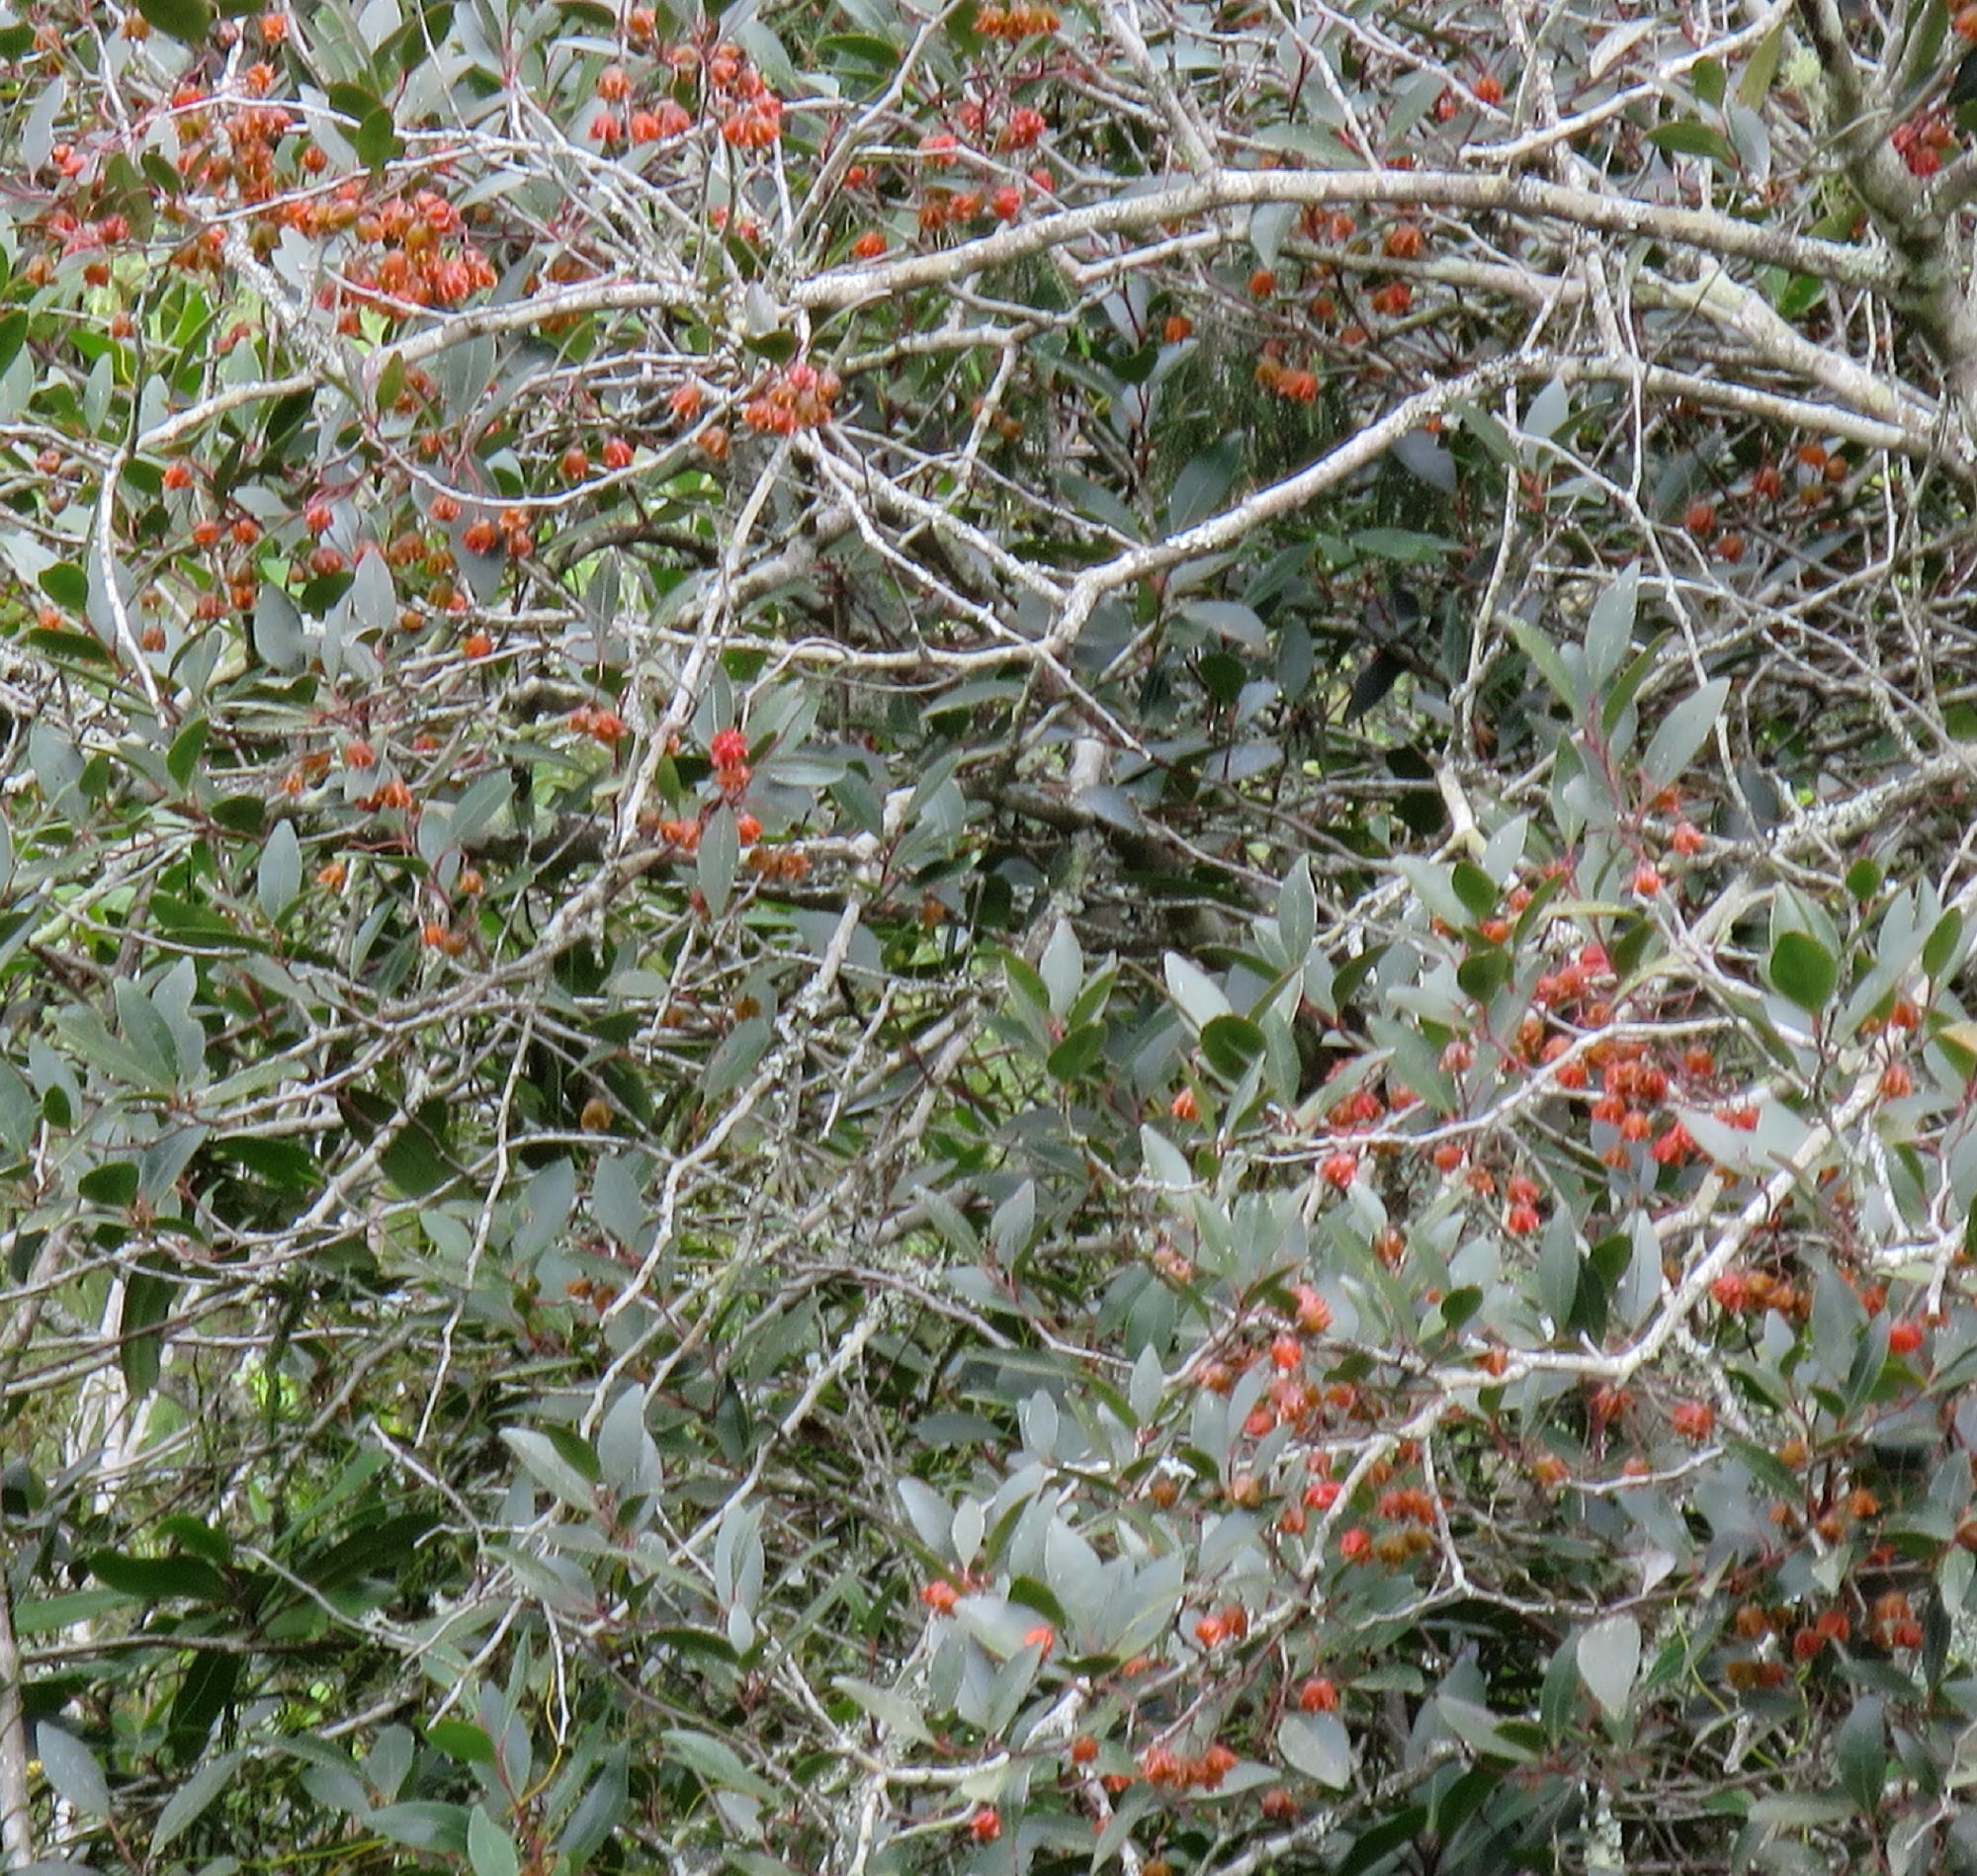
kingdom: Plantae
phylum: Tracheophyta
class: Magnoliopsida
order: Celastrales
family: Celastraceae
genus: Pterocelastrus
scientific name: Pterocelastrus rostratus
